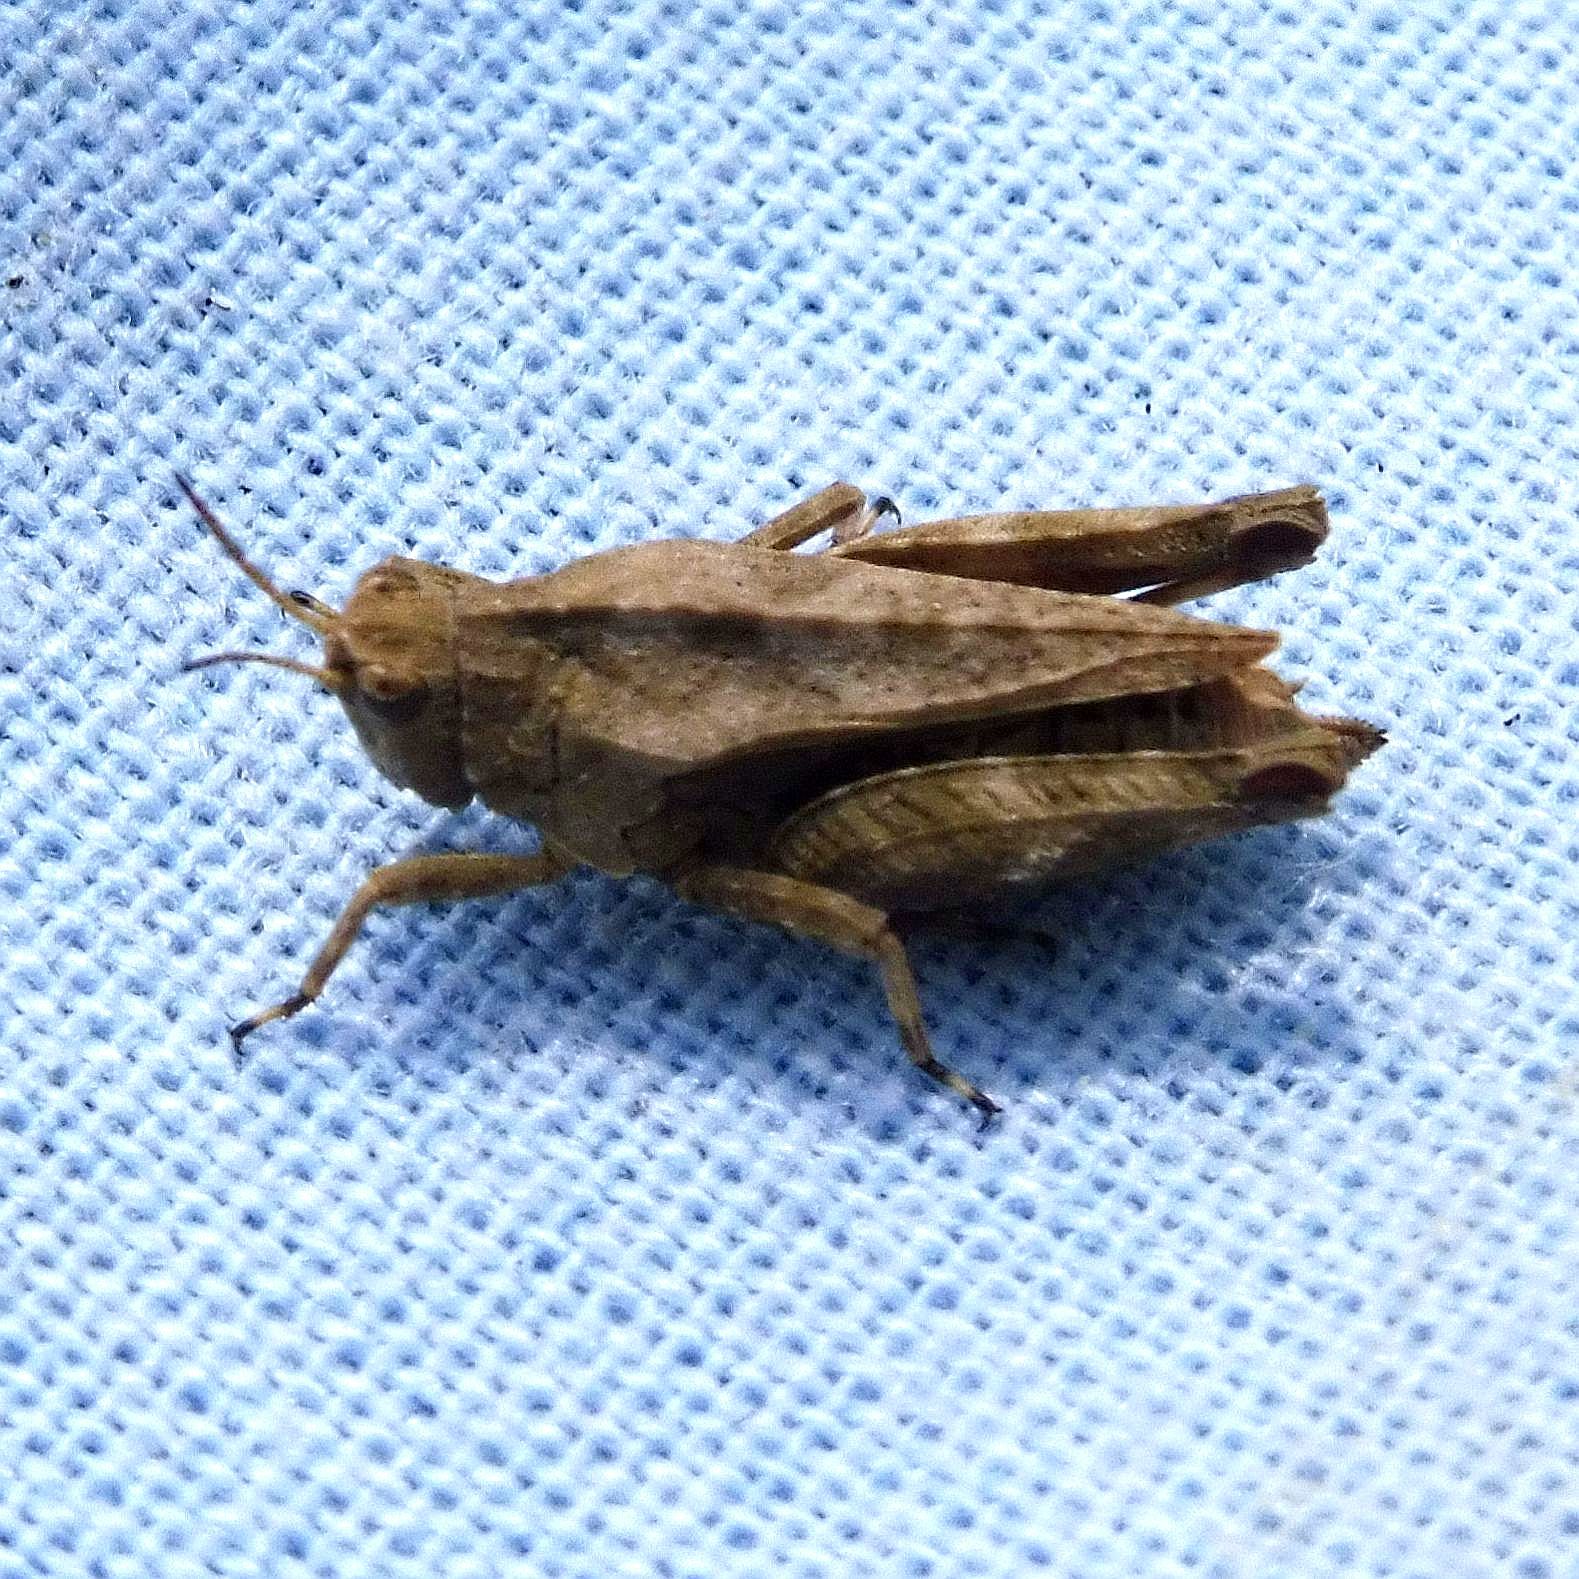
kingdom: Animalia
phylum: Arthropoda
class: Insecta
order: Orthoptera
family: Tetrigidae
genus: Tetrix
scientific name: Tetrix undulata
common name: Common groundhopper
